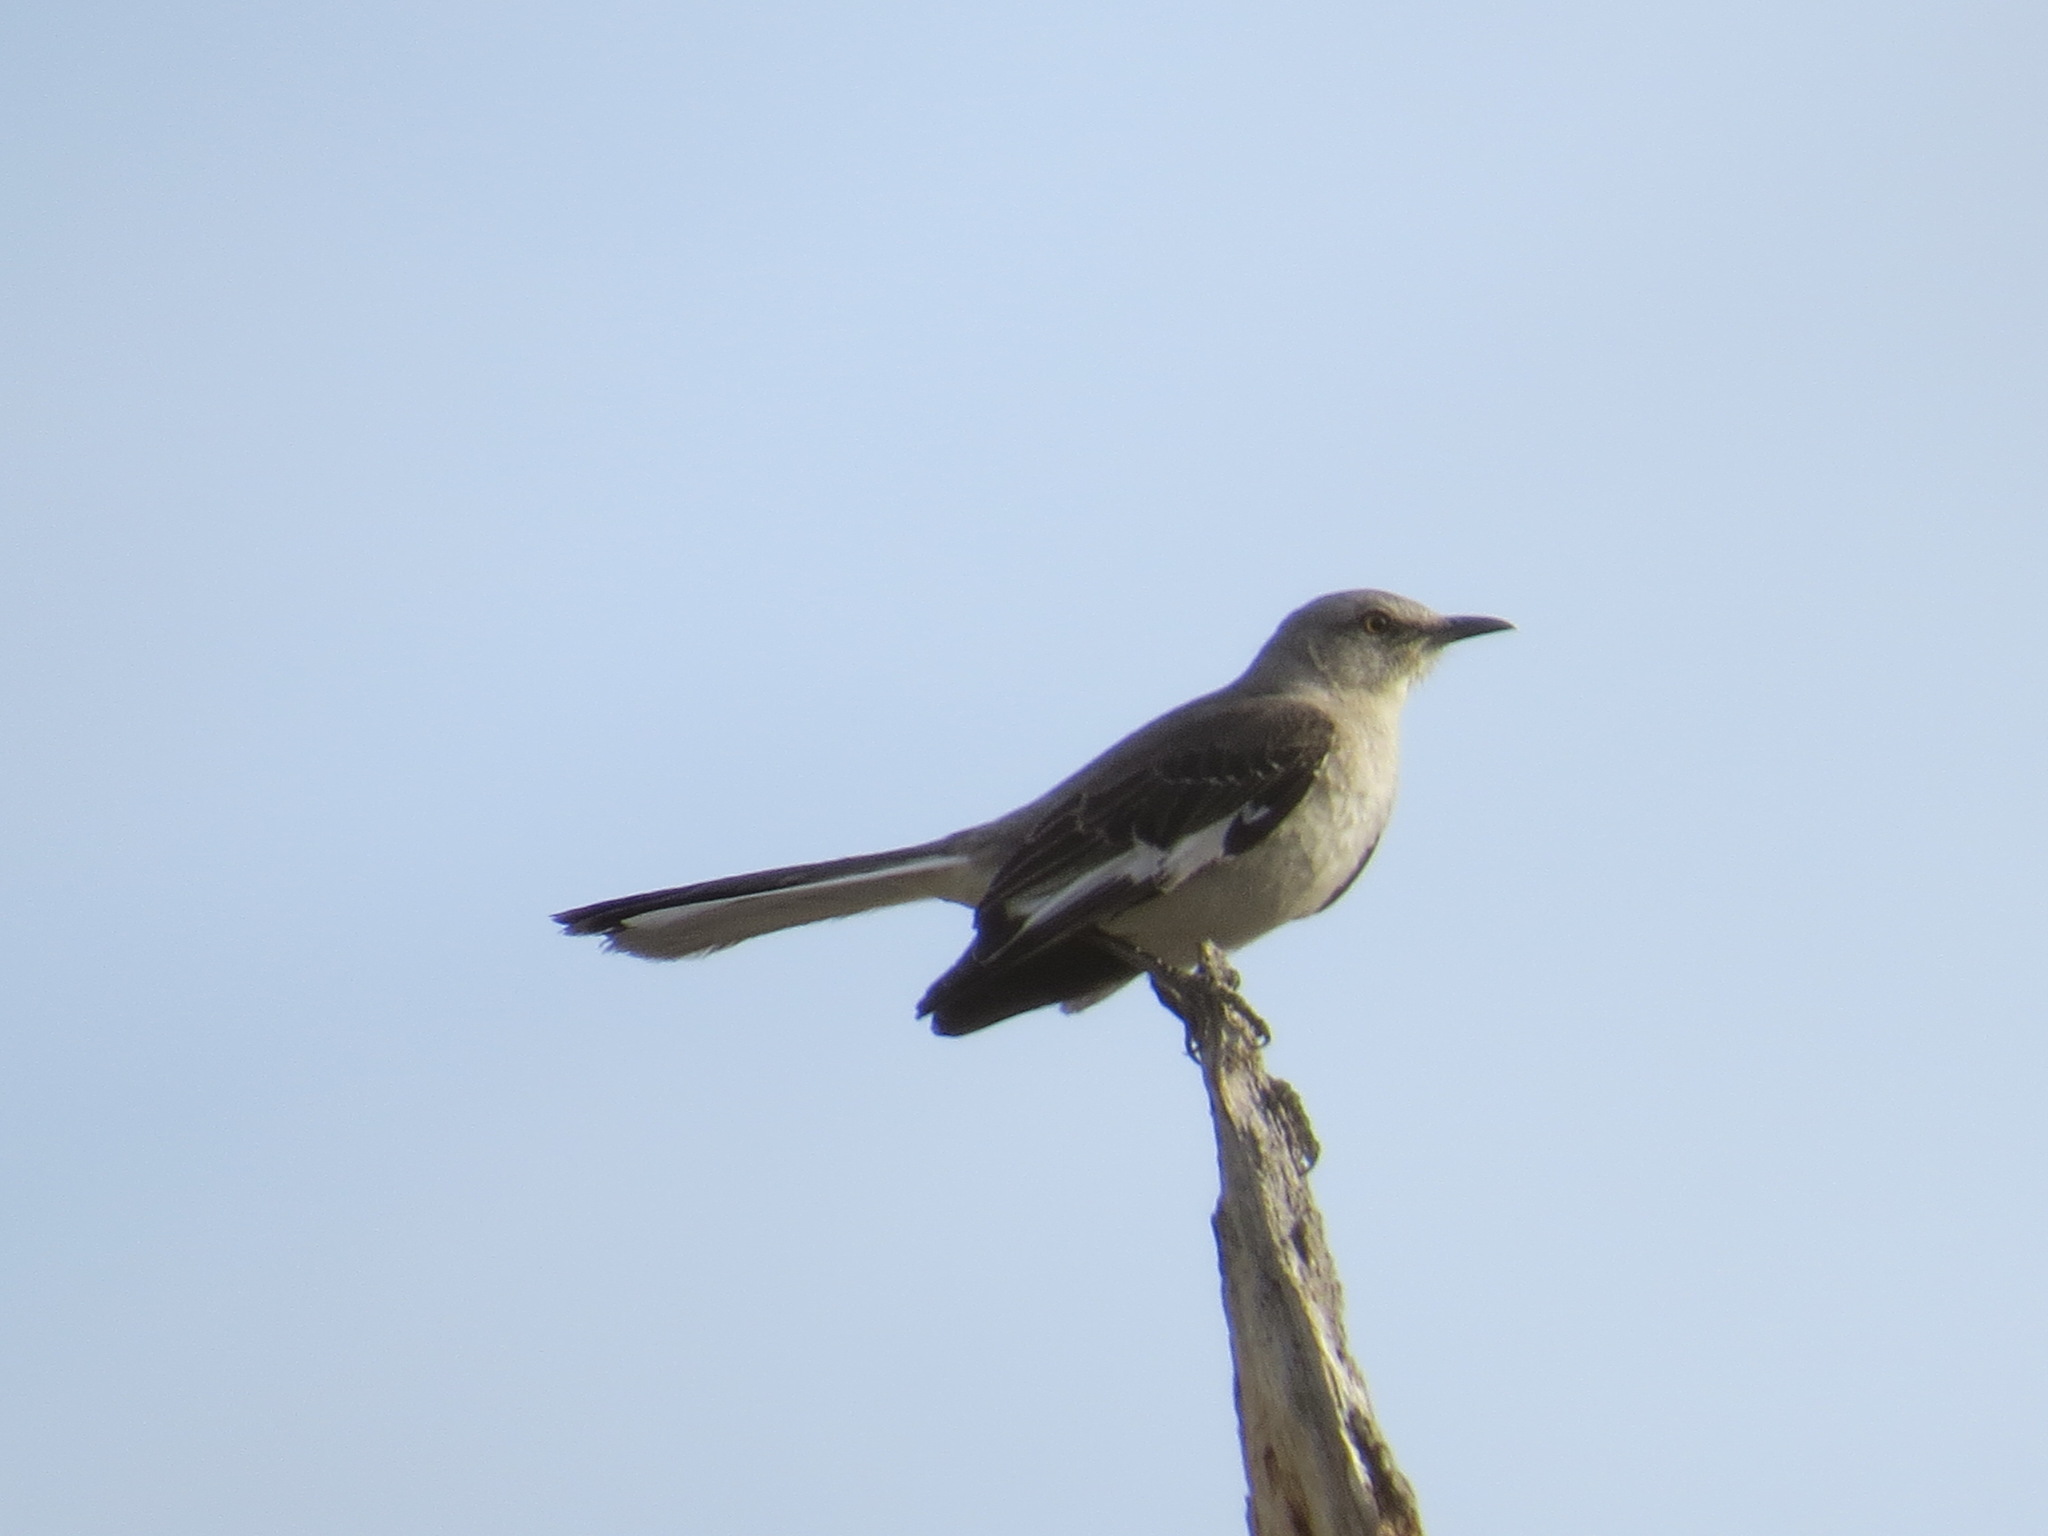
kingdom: Animalia
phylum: Chordata
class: Aves
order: Passeriformes
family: Mimidae
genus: Mimus
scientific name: Mimus polyglottos
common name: Northern mockingbird
